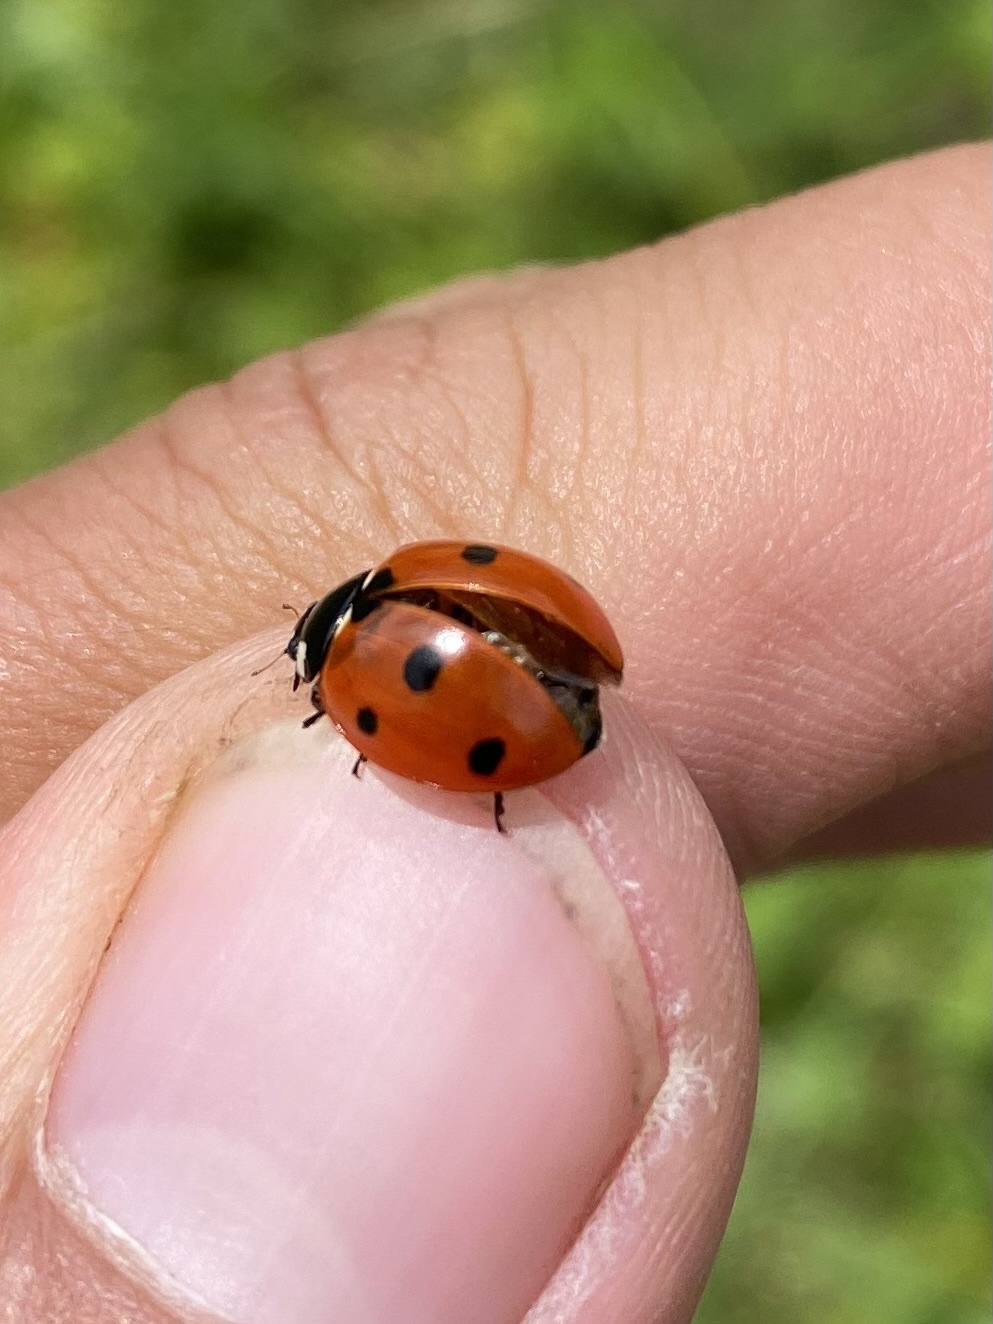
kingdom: Animalia
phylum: Arthropoda
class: Insecta
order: Coleoptera
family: Coccinellidae
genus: Coccinella
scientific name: Coccinella septempunctata
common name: Sevenspotted lady beetle
